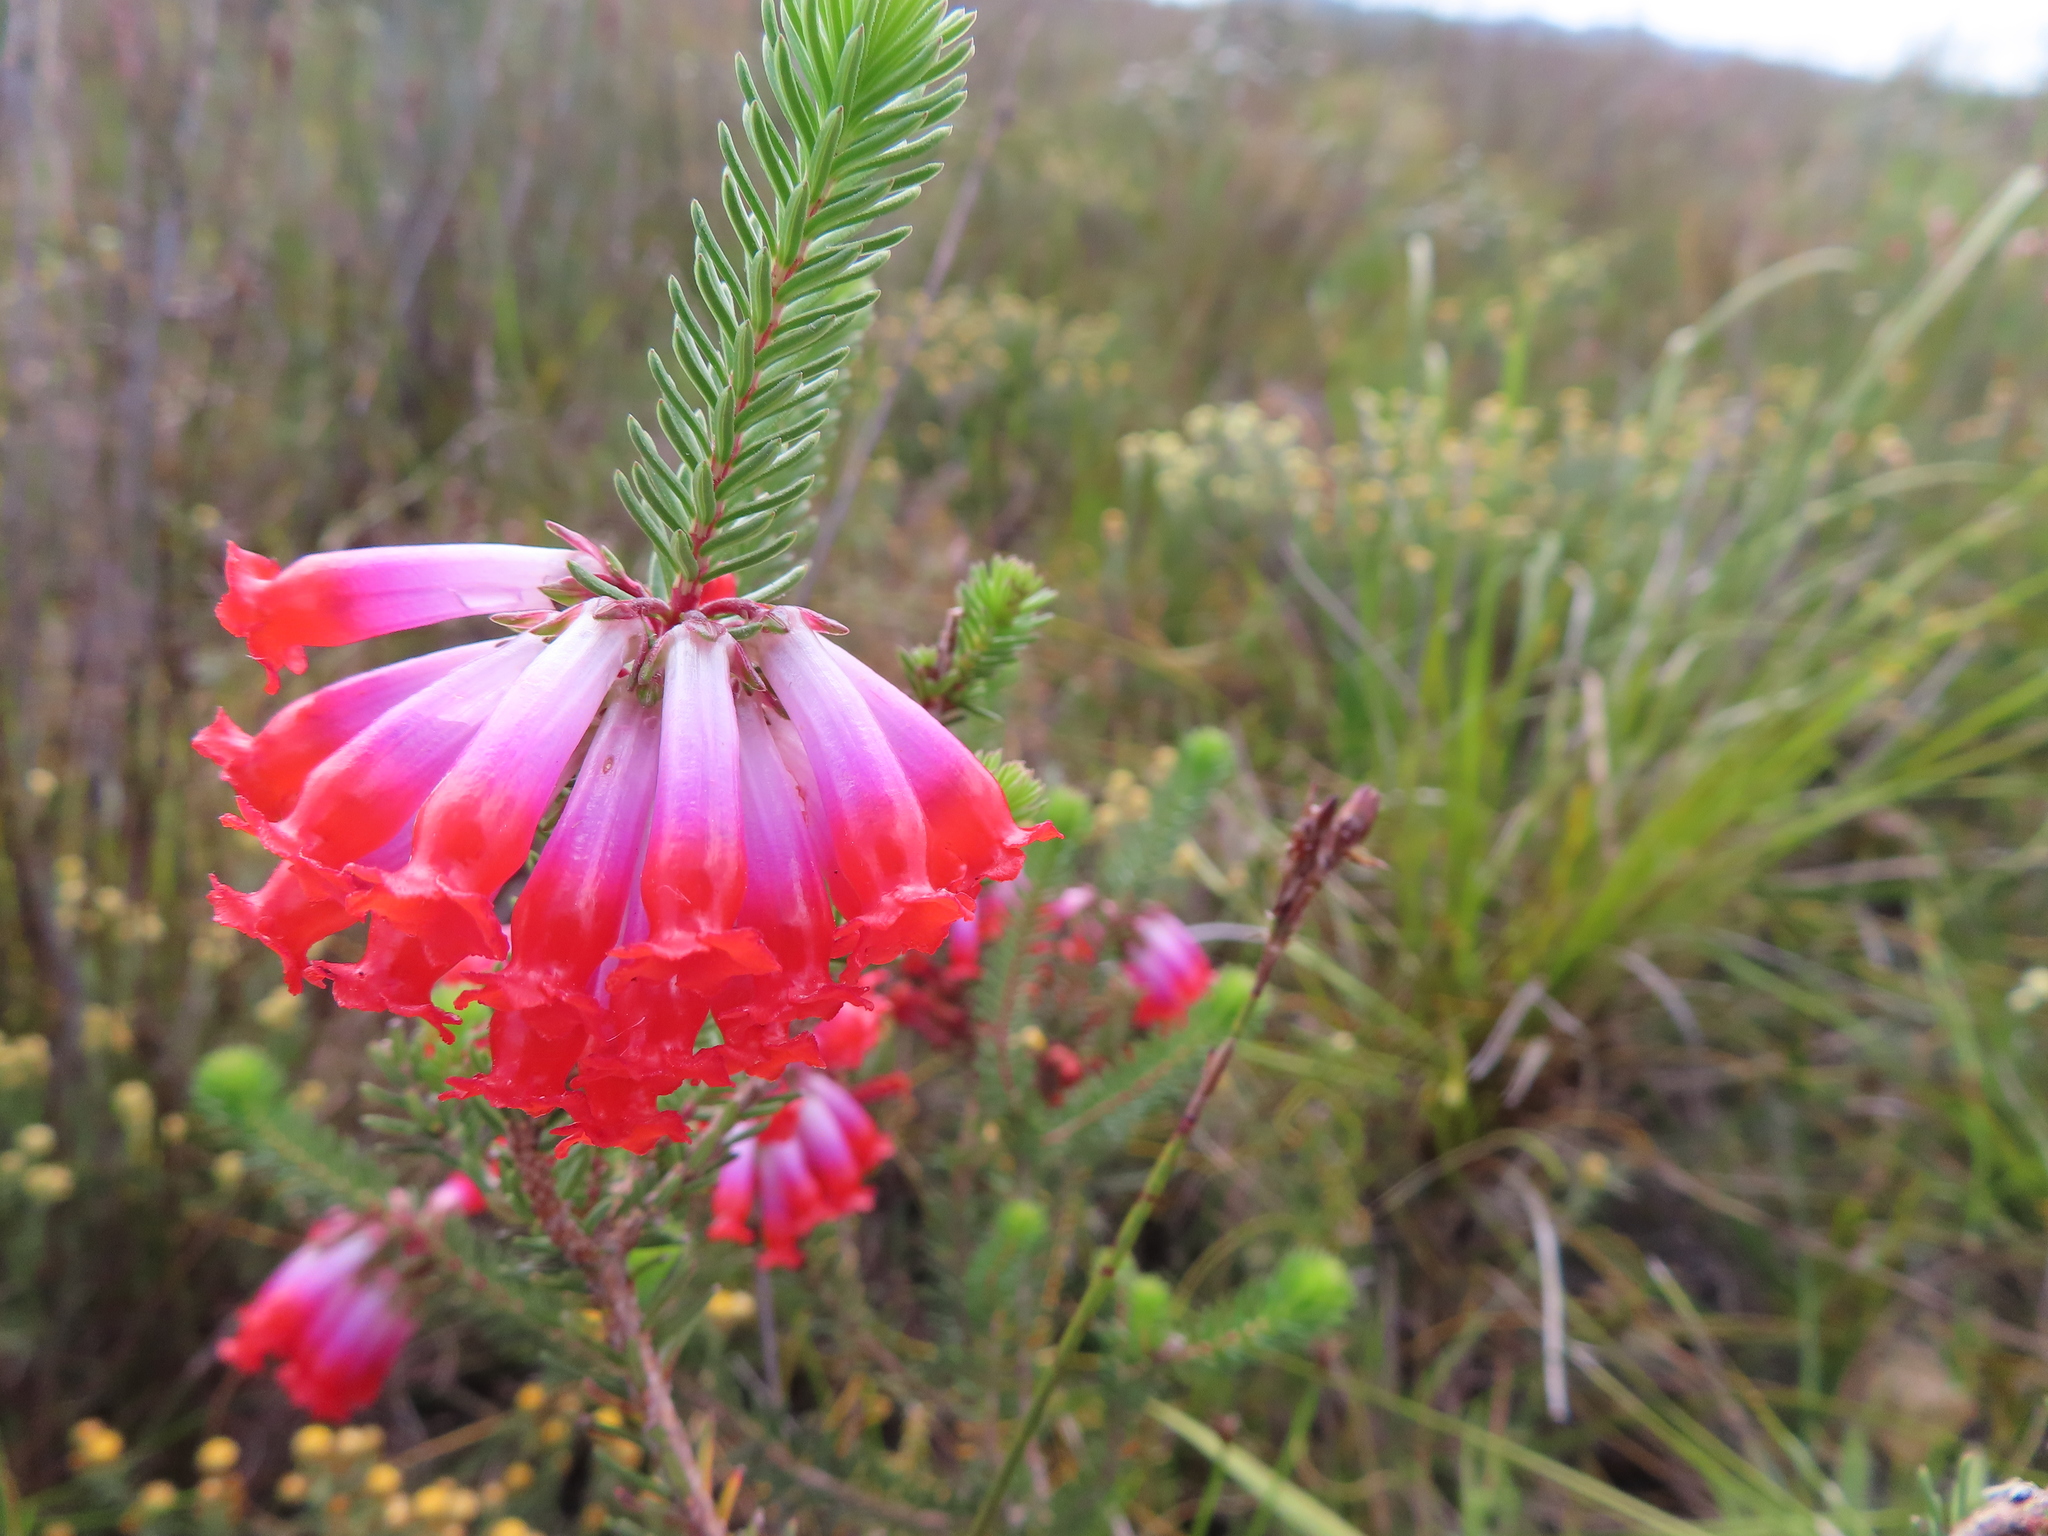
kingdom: Plantae
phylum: Tracheophyta
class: Magnoliopsida
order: Ericales
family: Ericaceae
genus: Erica
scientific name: Erica regia
